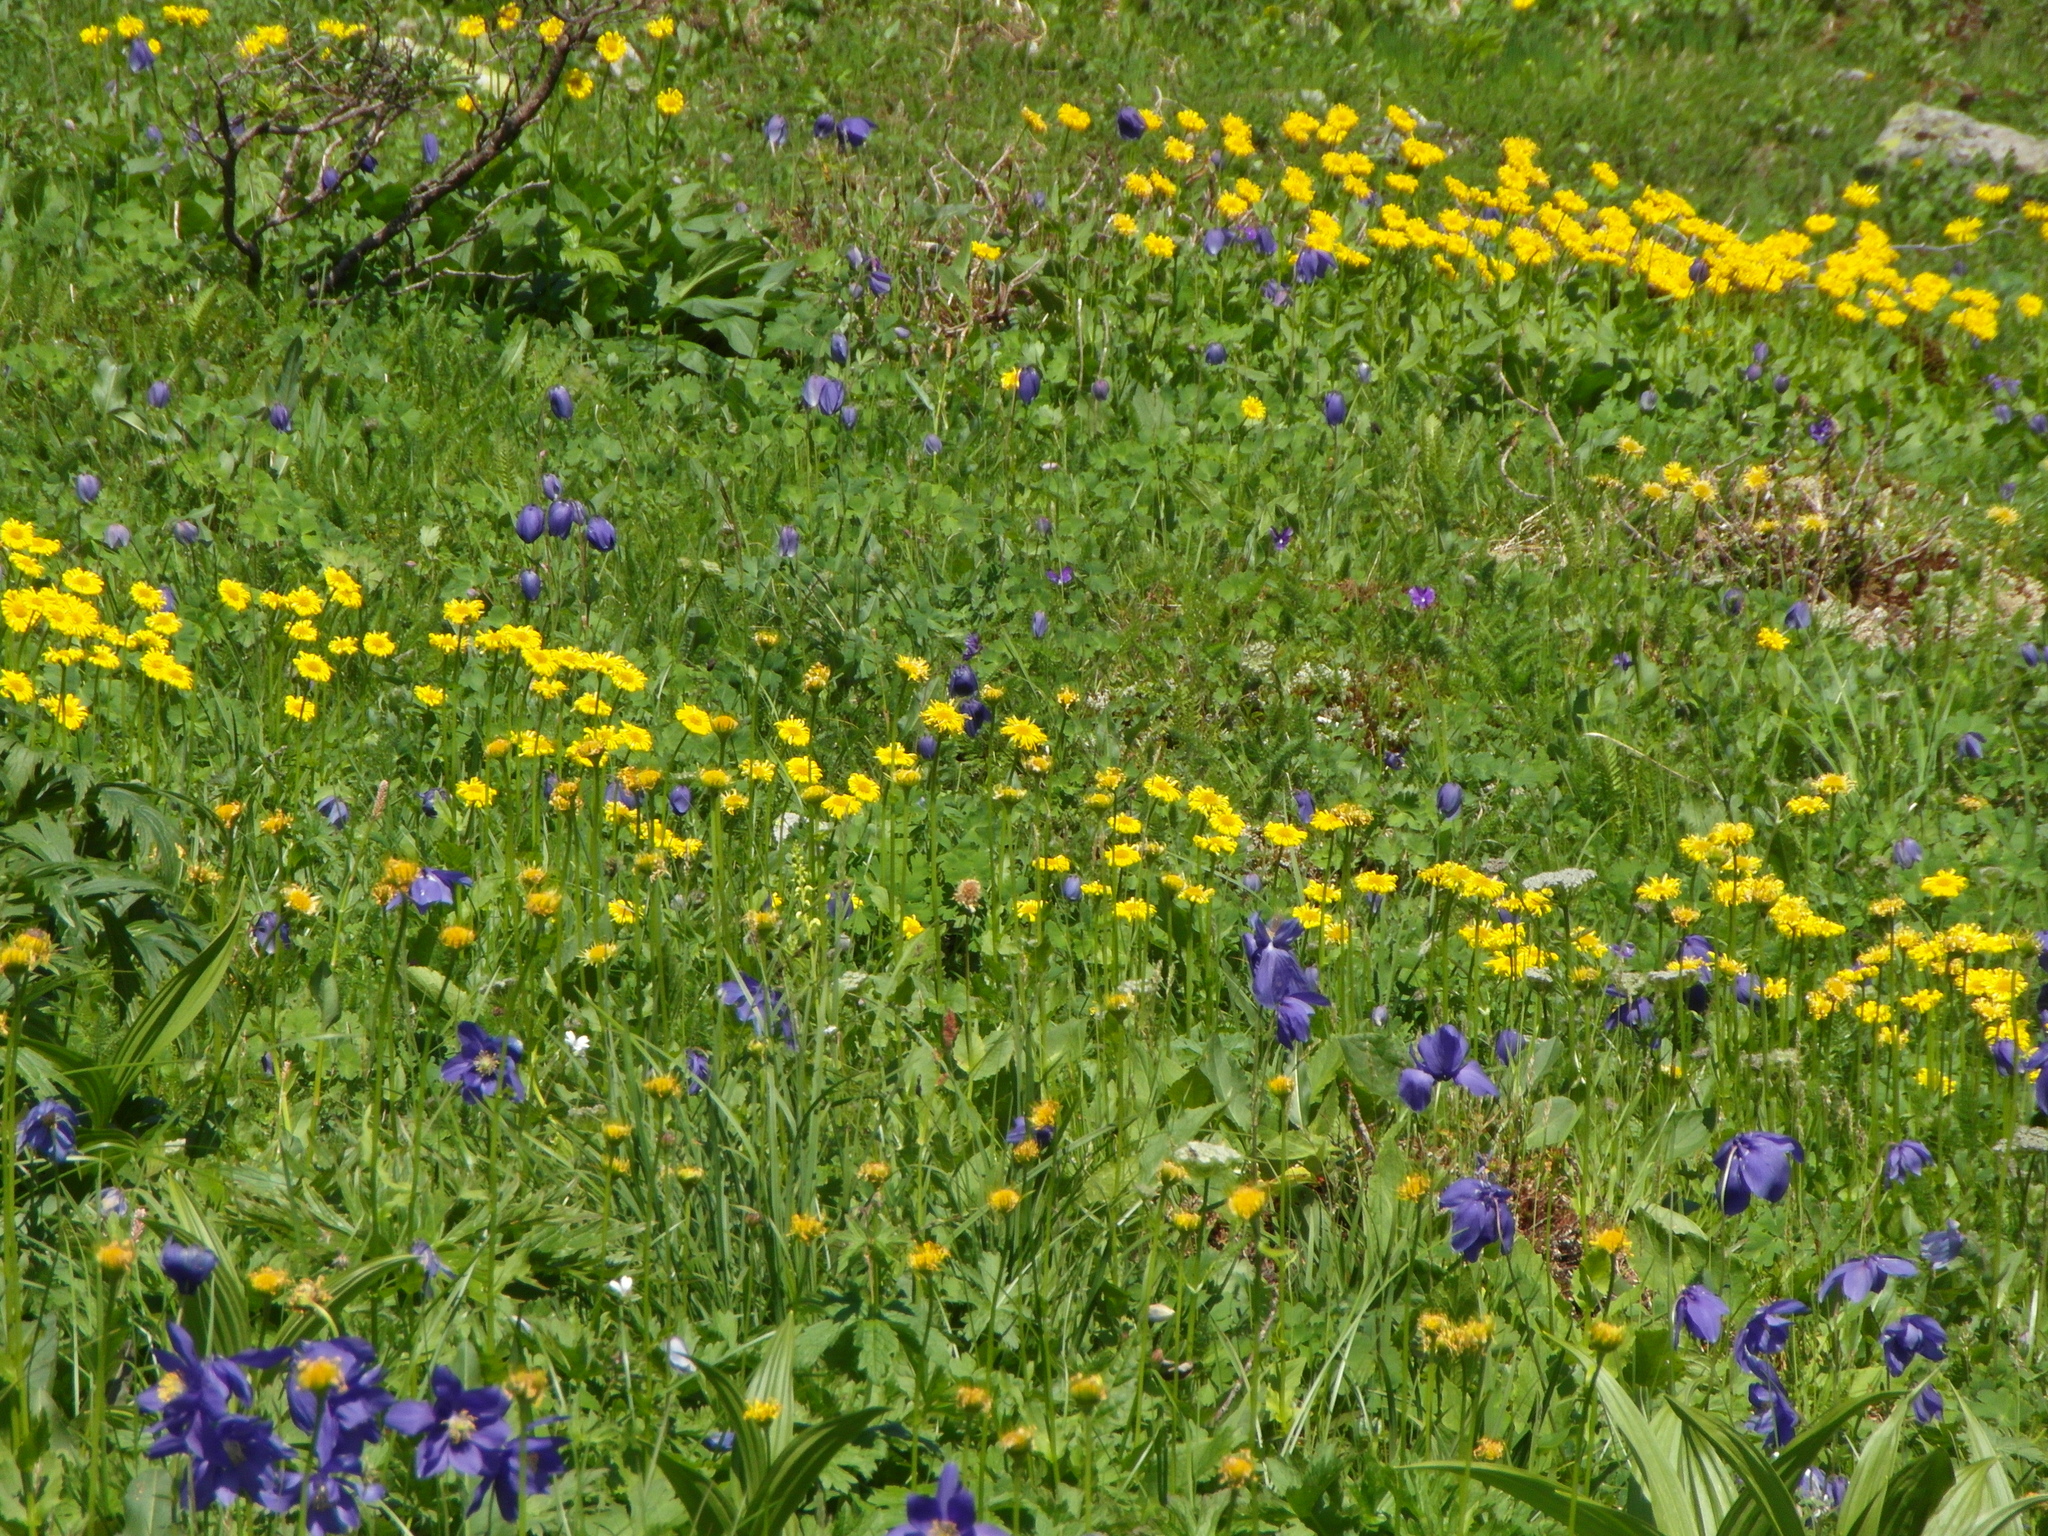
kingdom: Plantae
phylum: Tracheophyta
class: Magnoliopsida
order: Asterales
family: Asteraceae
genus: Doronicum
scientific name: Doronicum altaicum
